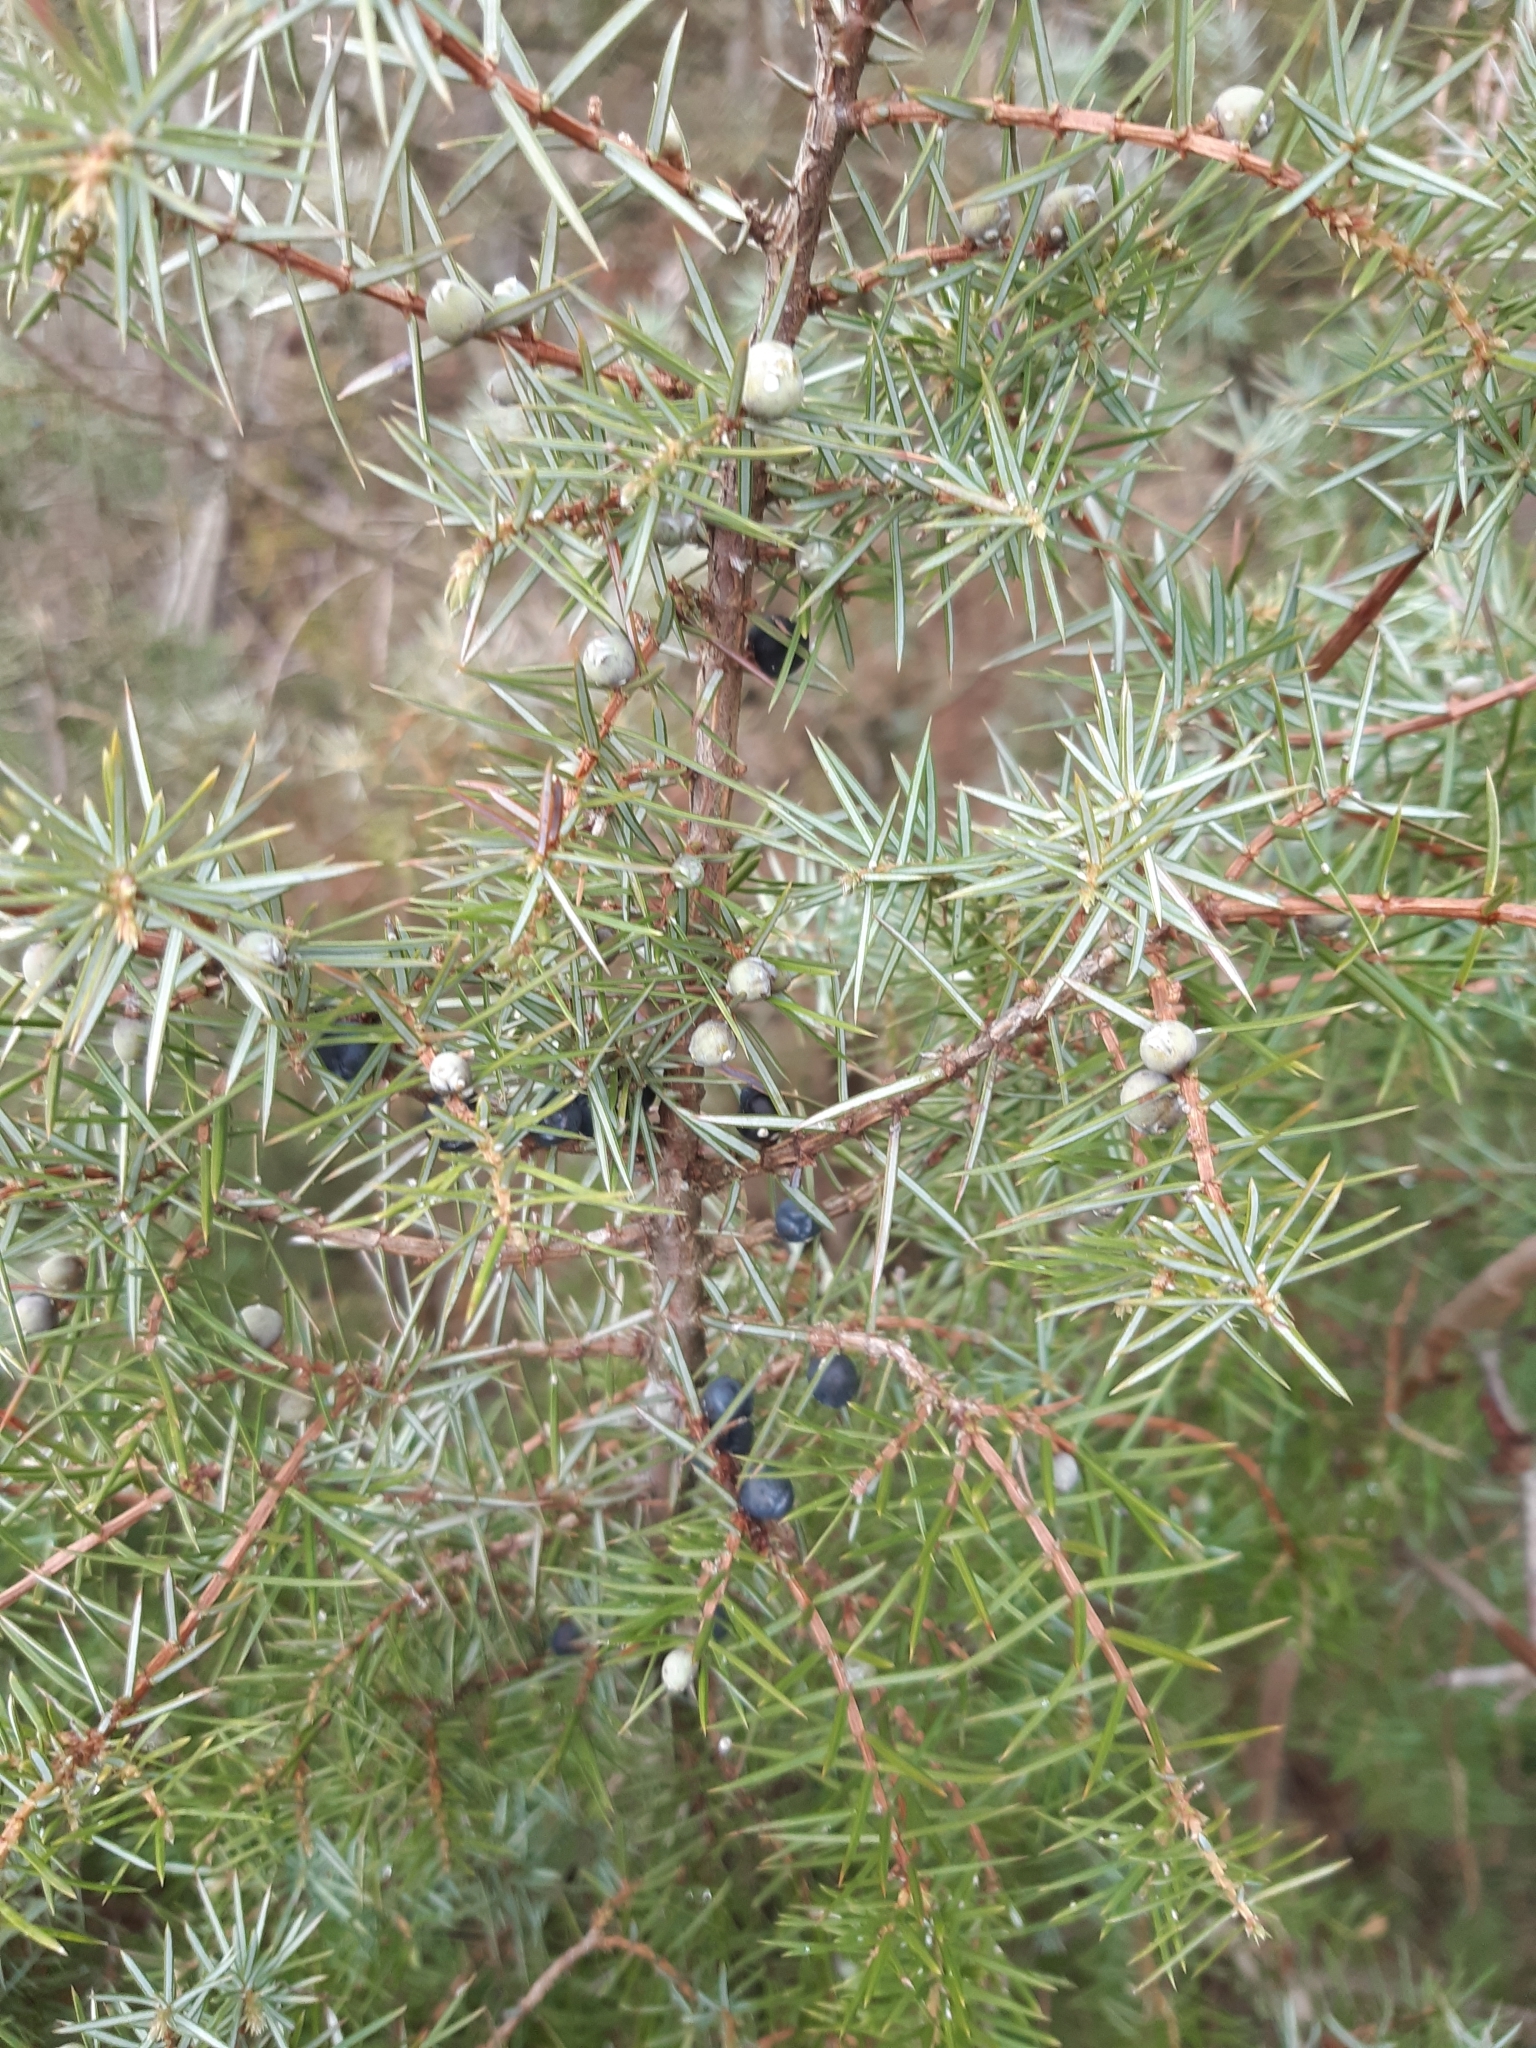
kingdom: Plantae
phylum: Tracheophyta
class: Pinopsida
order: Pinales
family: Cupressaceae
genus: Juniperus
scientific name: Juniperus communis
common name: Common juniper
